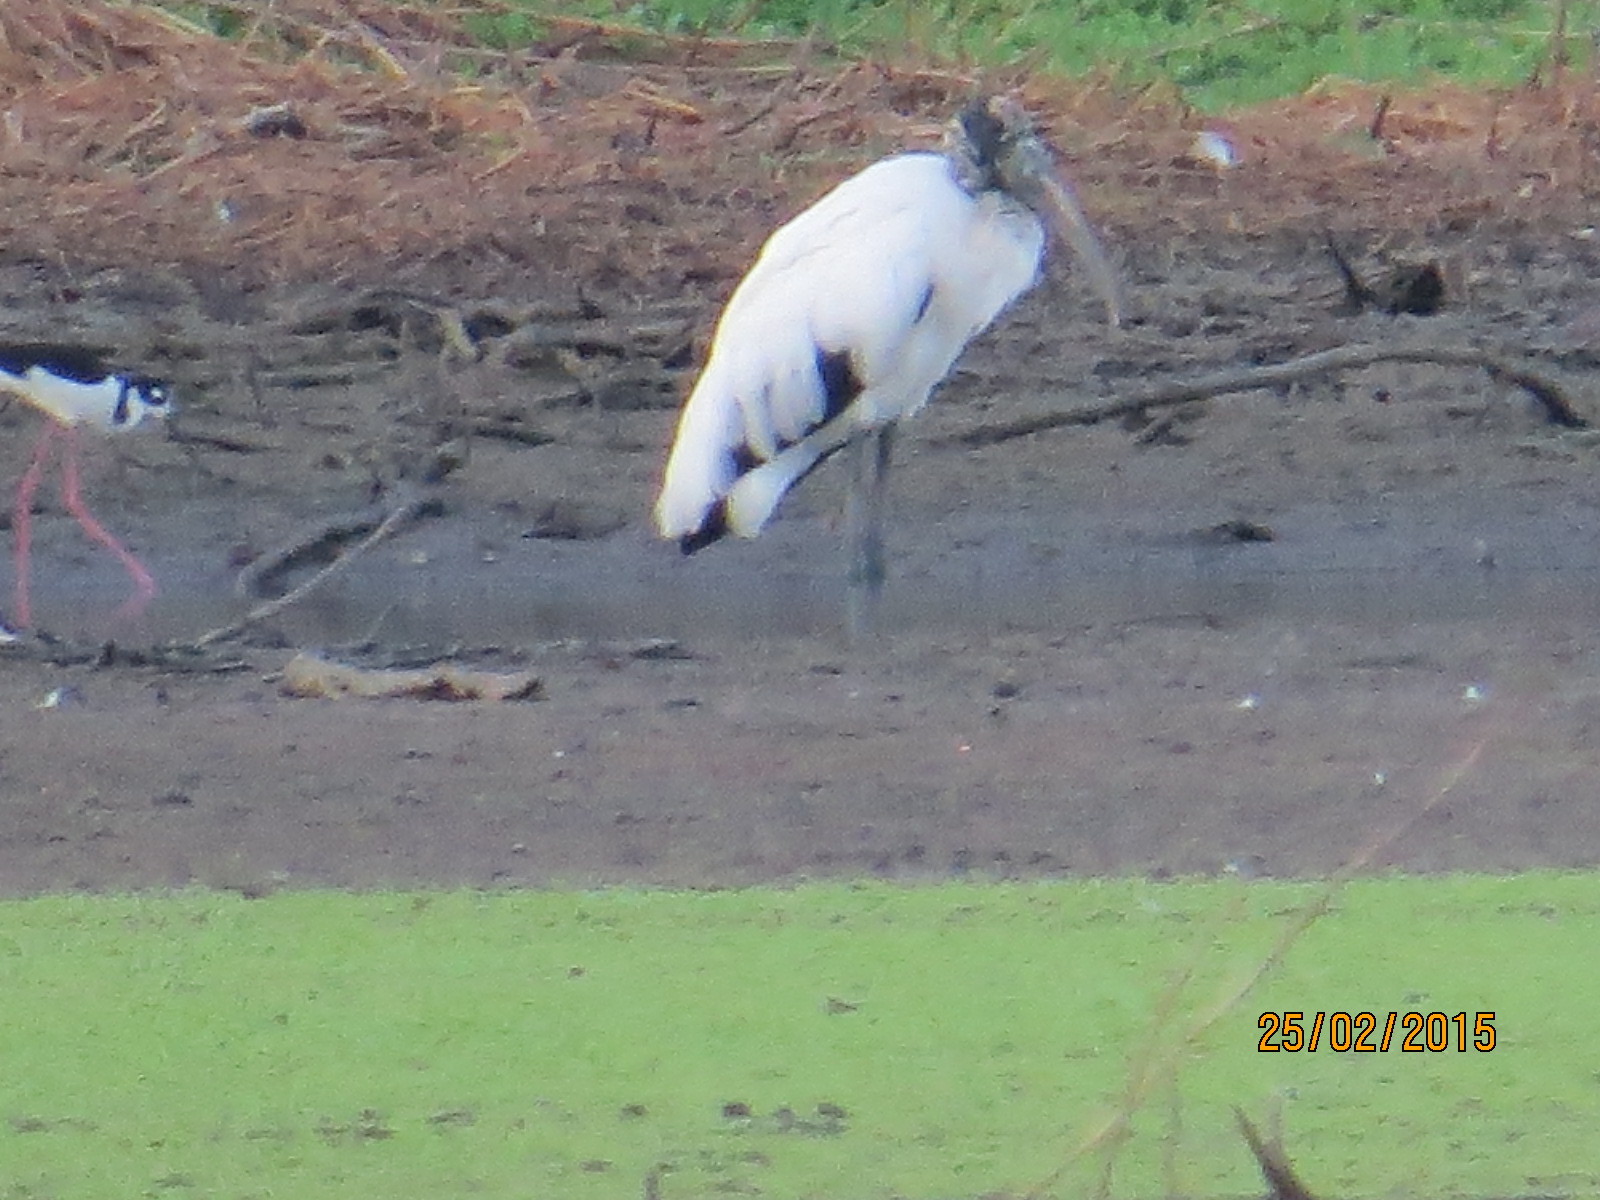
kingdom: Animalia
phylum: Chordata
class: Aves
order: Ciconiiformes
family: Ciconiidae
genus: Mycteria
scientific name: Mycteria americana
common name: Wood stork
